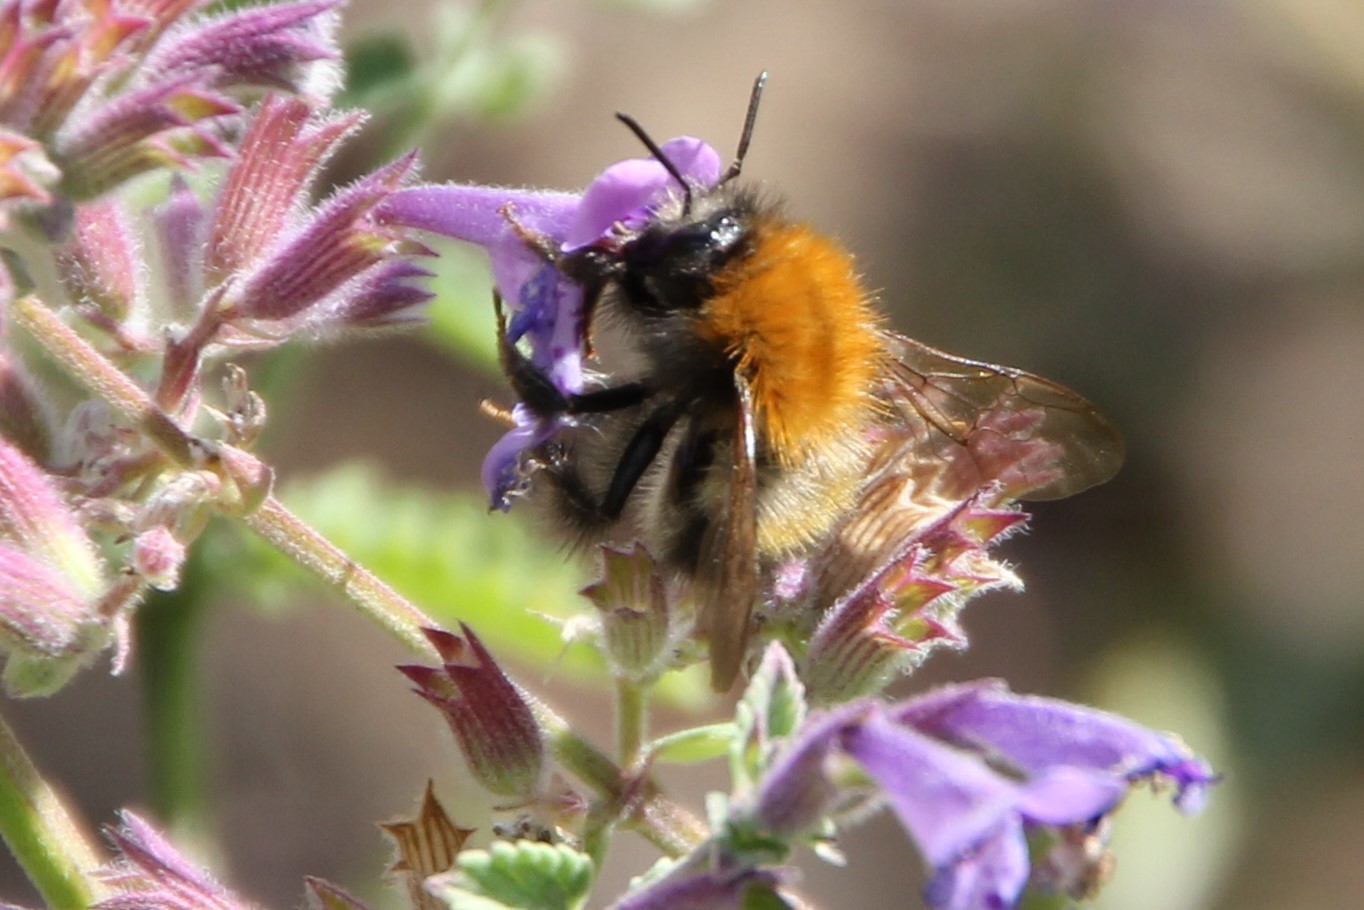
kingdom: Animalia
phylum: Arthropoda
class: Insecta
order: Hymenoptera
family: Apidae
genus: Bombus
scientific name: Bombus pascuorum
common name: Common carder bee
